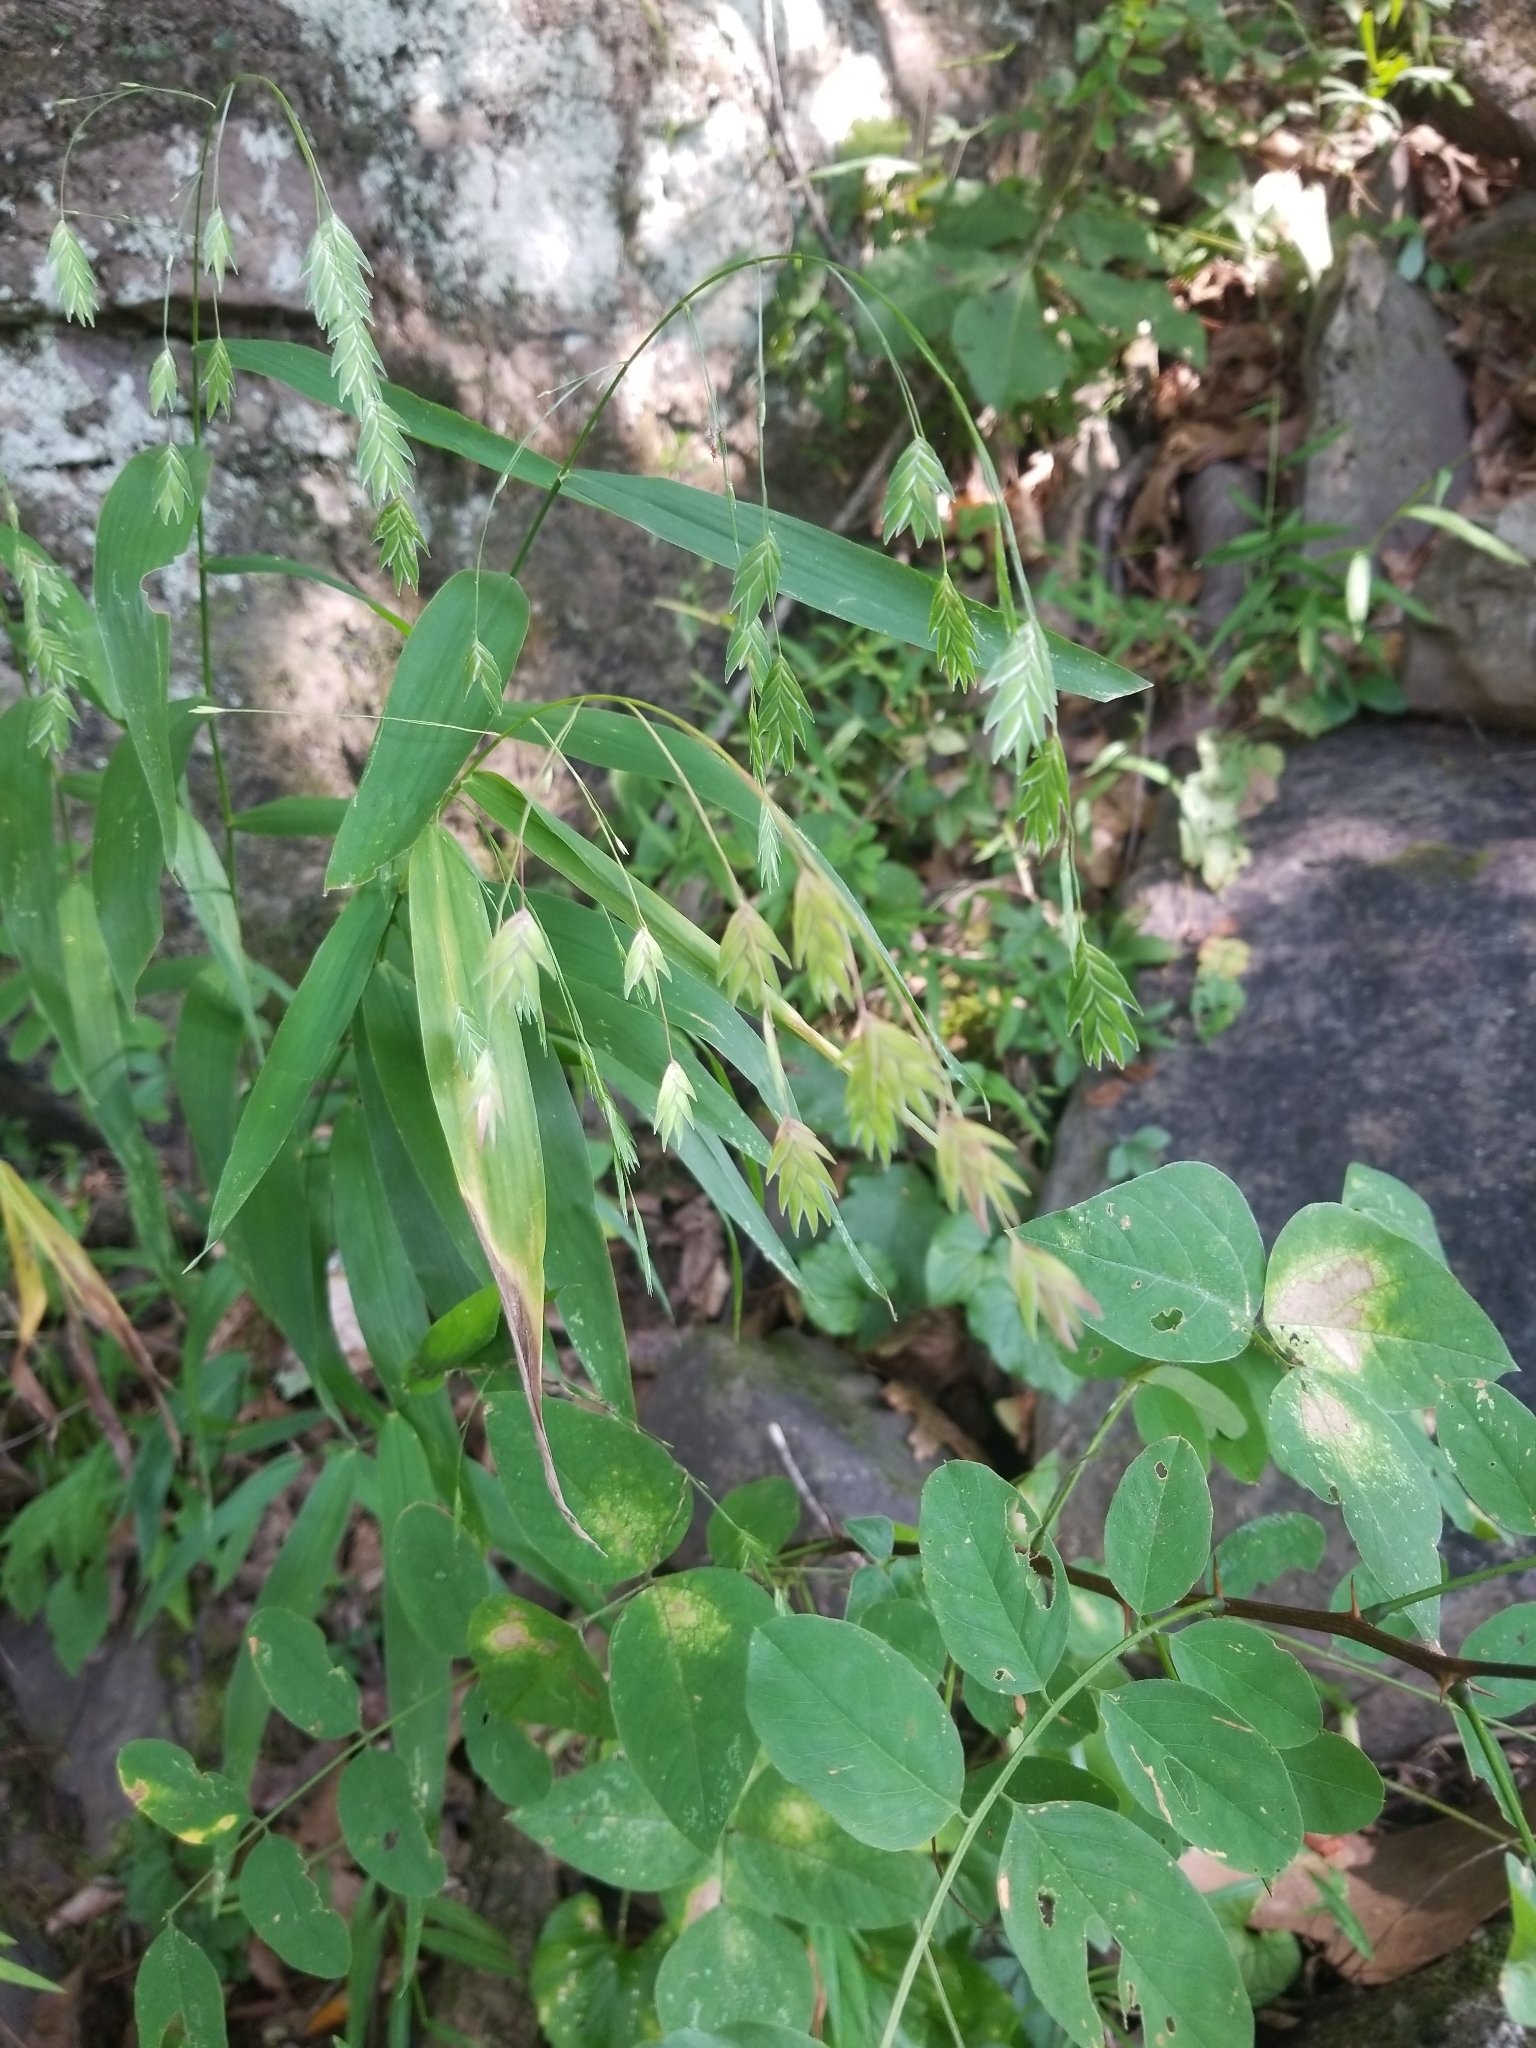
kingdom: Plantae
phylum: Tracheophyta
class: Liliopsida
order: Poales
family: Poaceae
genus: Chasmanthium
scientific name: Chasmanthium latifolium
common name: Broad-leaved chasmanthium
